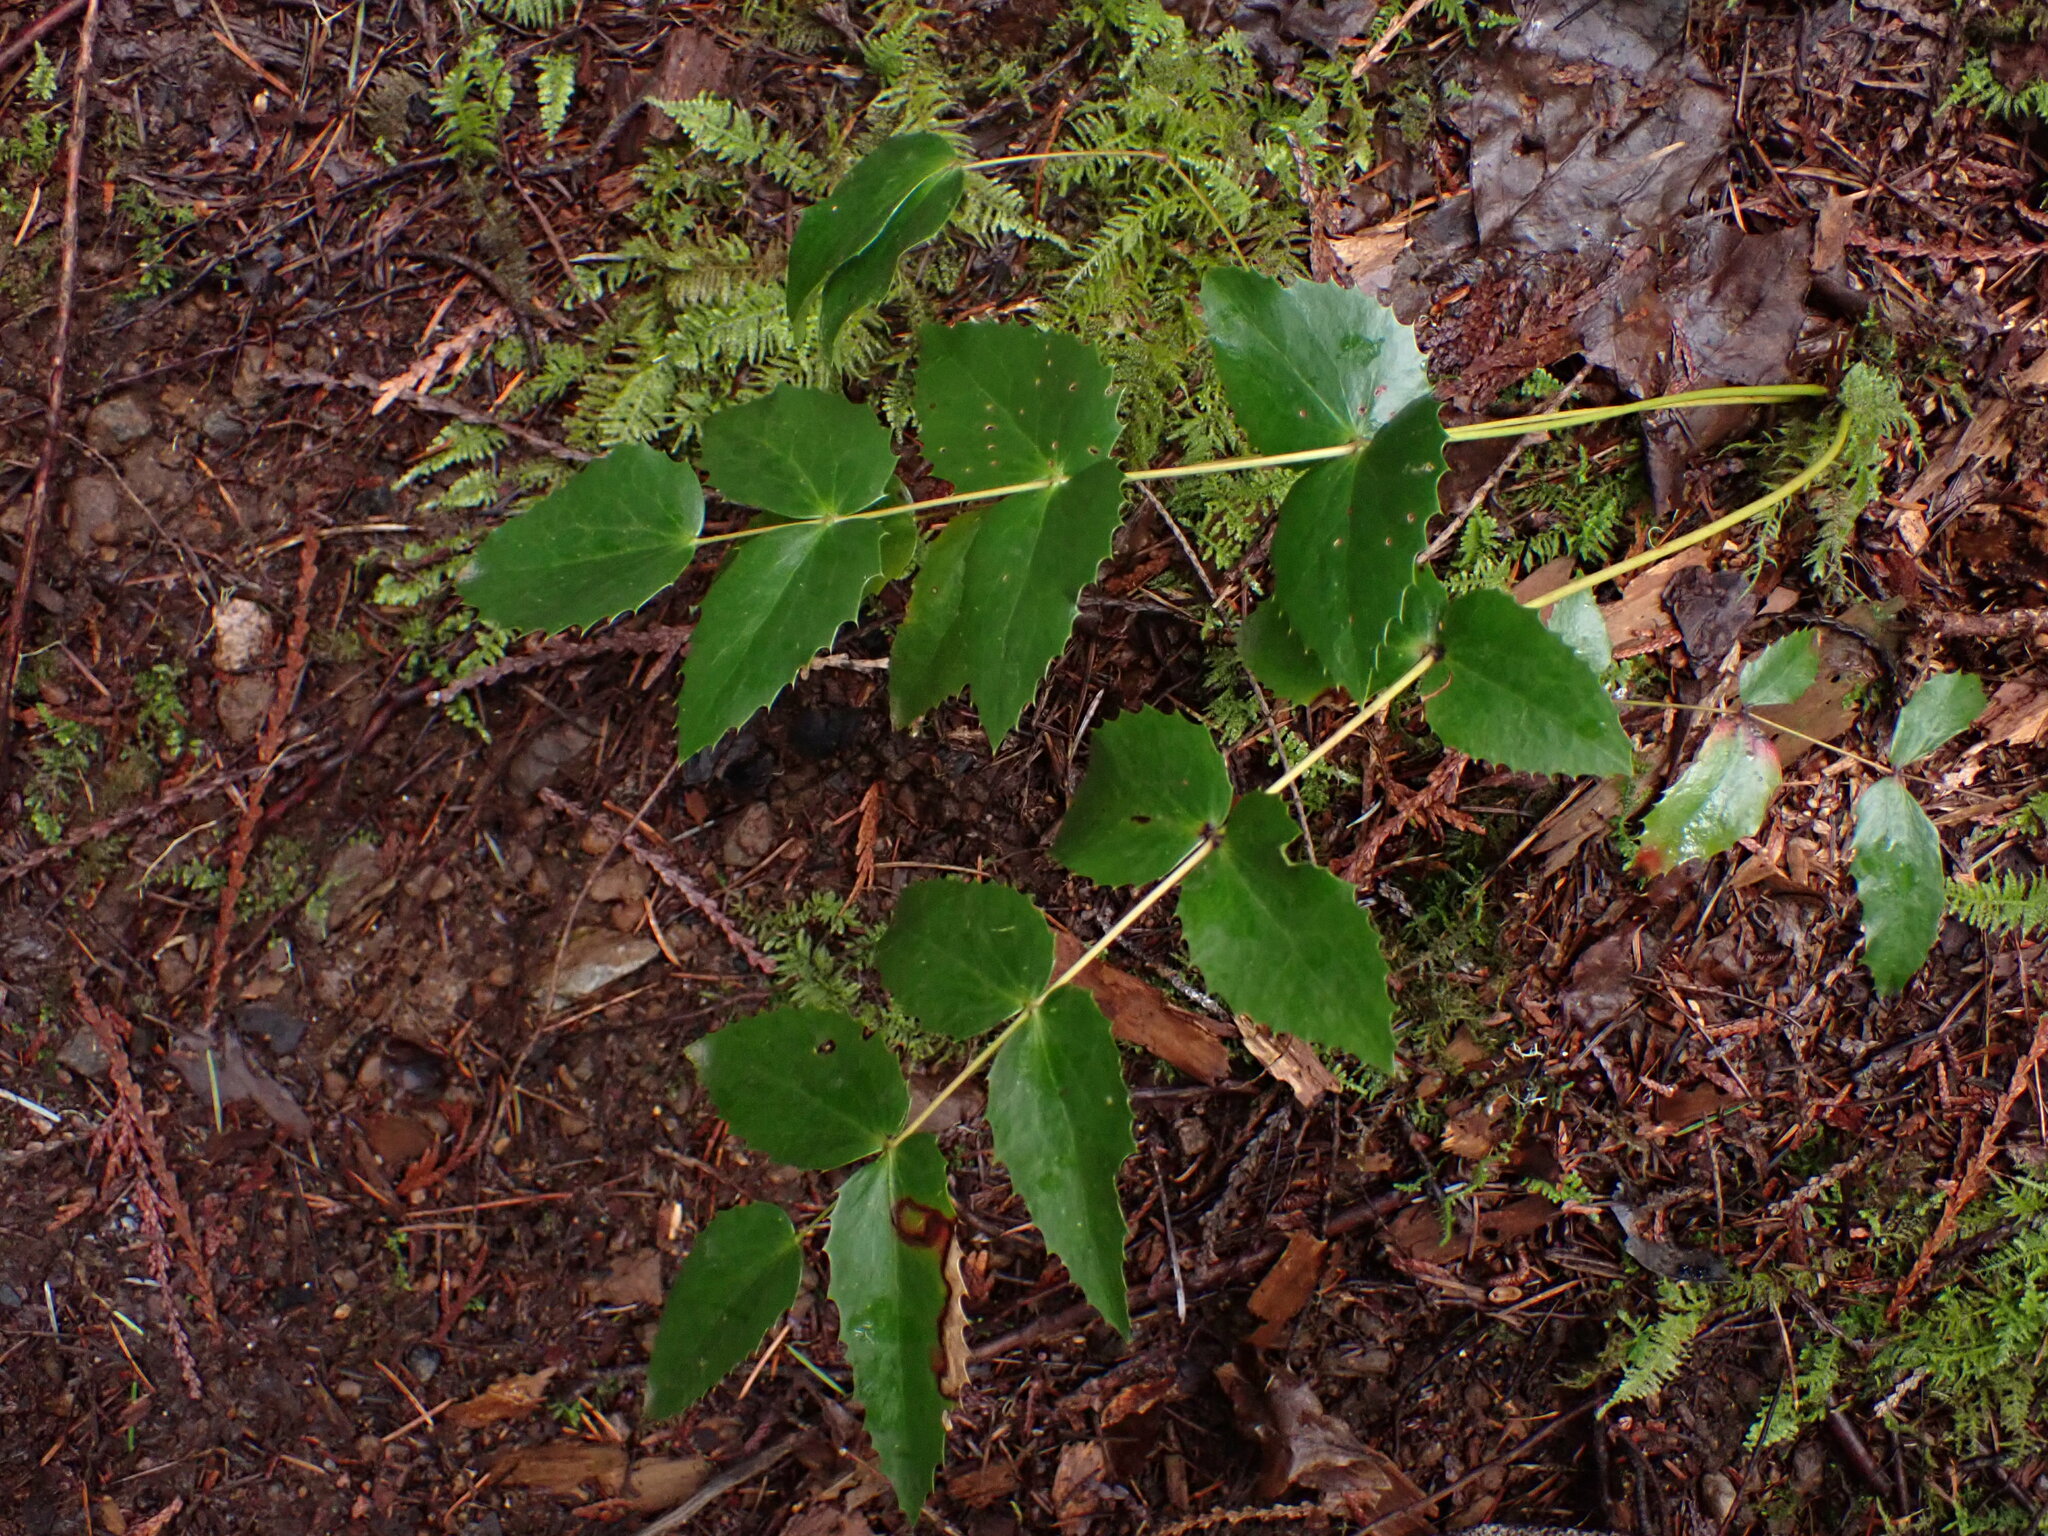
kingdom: Plantae
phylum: Tracheophyta
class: Magnoliopsida
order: Ranunculales
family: Berberidaceae
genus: Mahonia
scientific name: Mahonia nervosa
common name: Cascade oregon-grape
